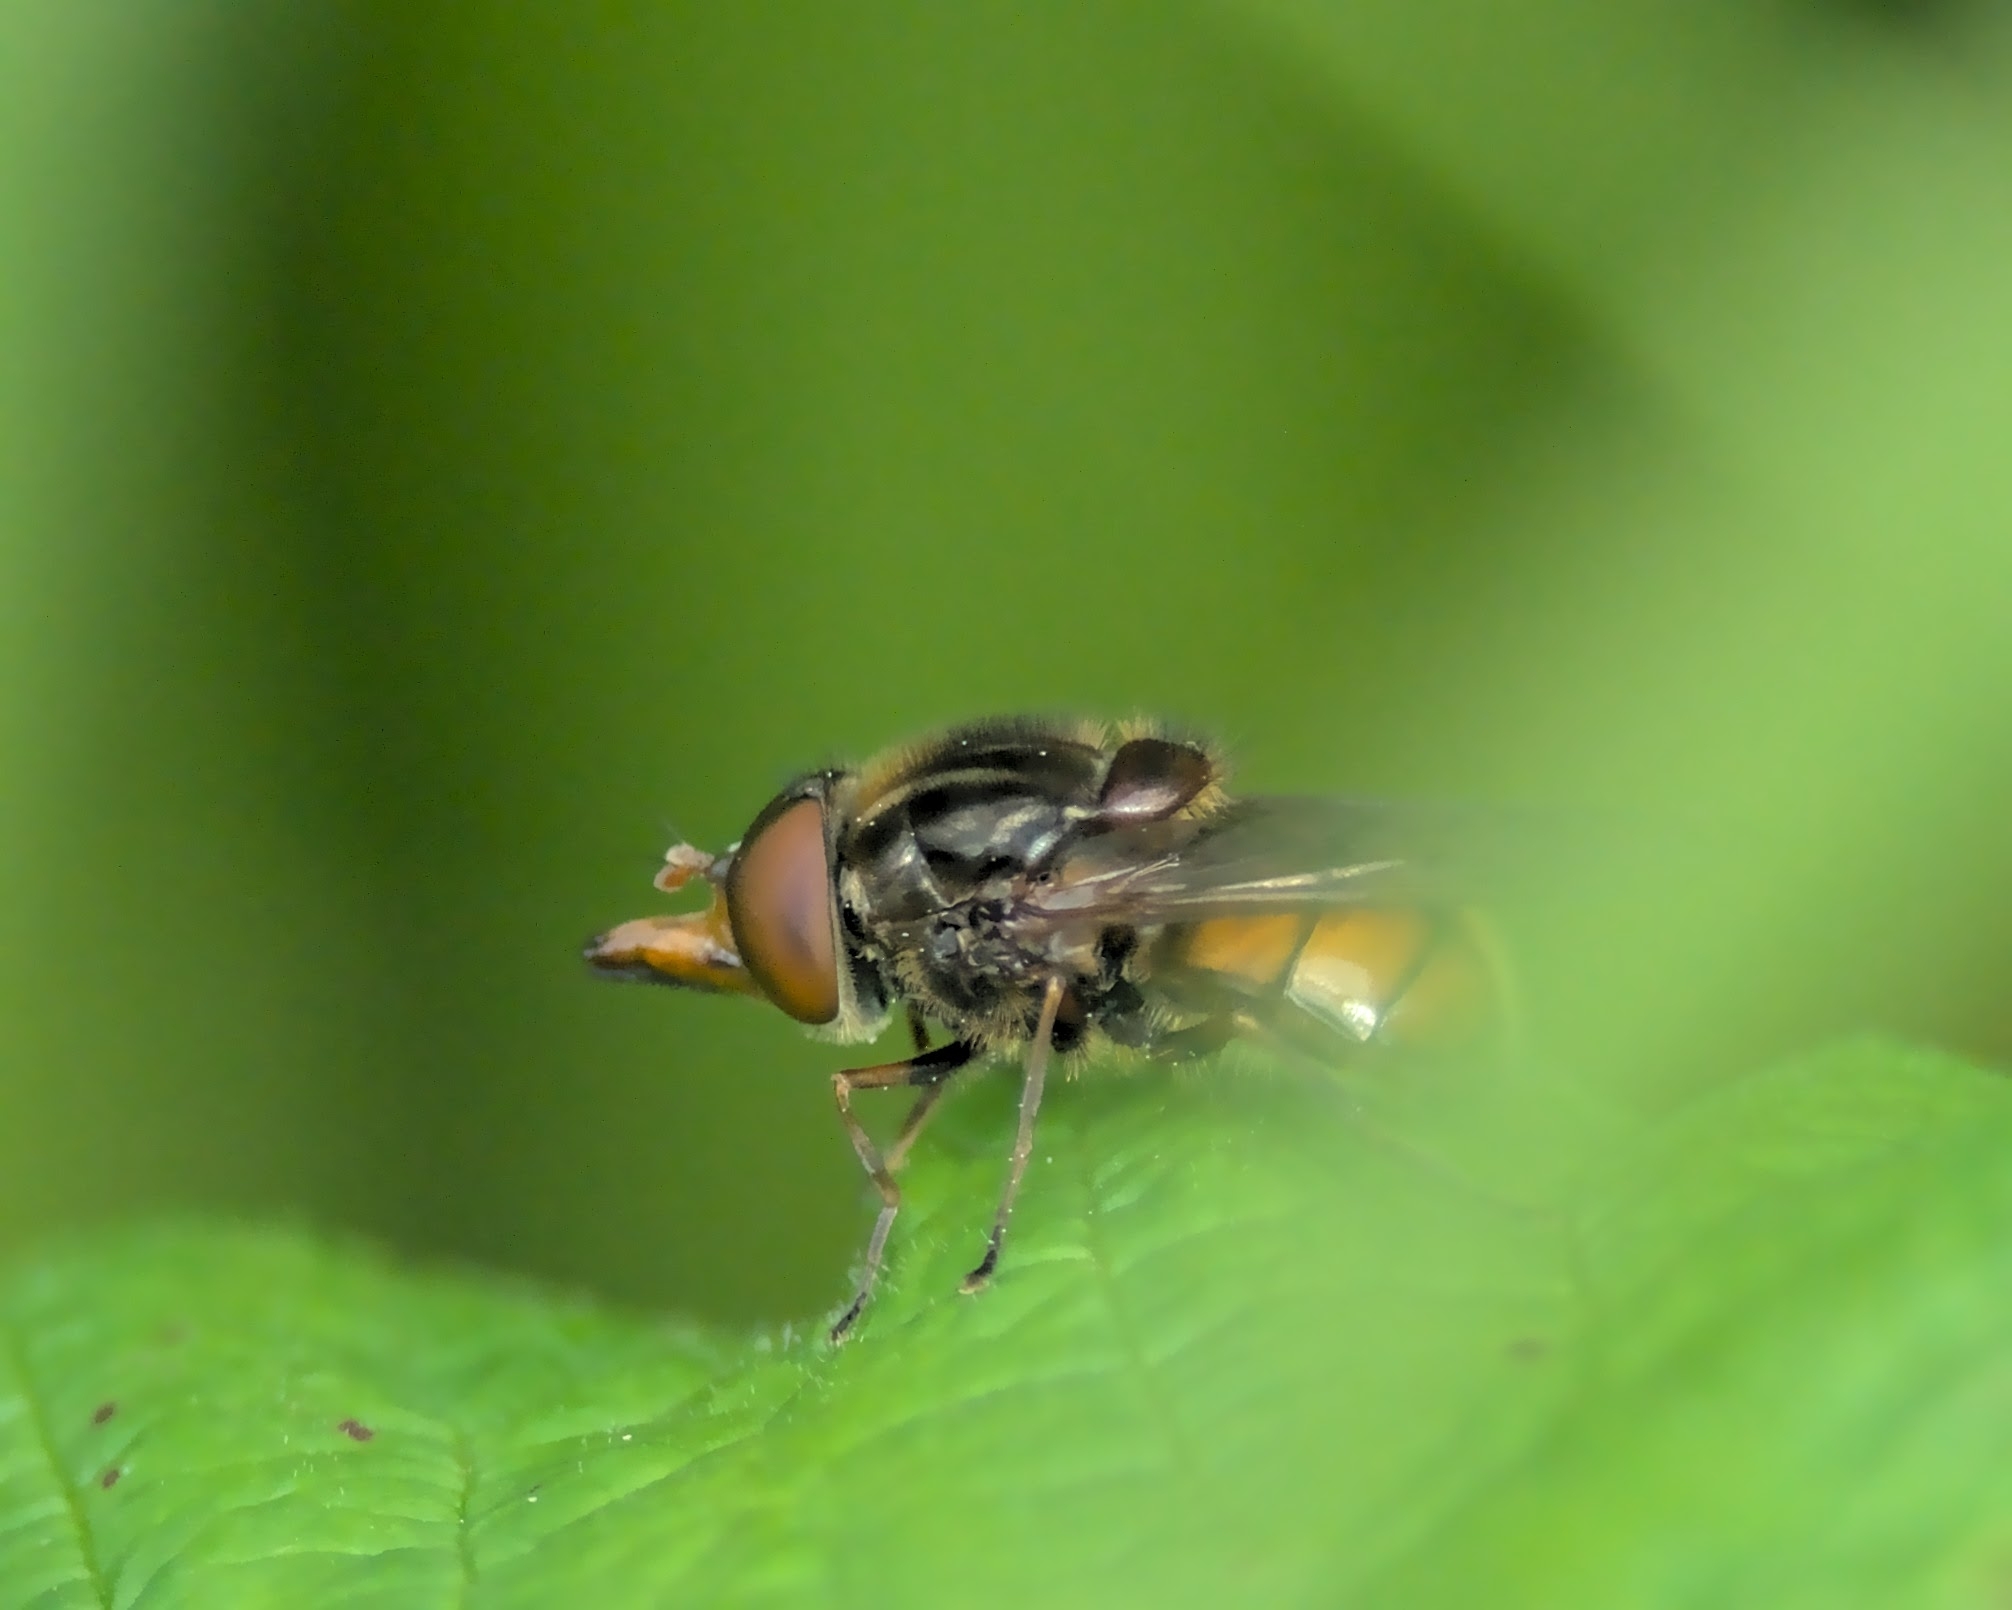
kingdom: Animalia
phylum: Arthropoda
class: Insecta
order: Diptera
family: Syrphidae
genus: Rhingia
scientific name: Rhingia campestris
